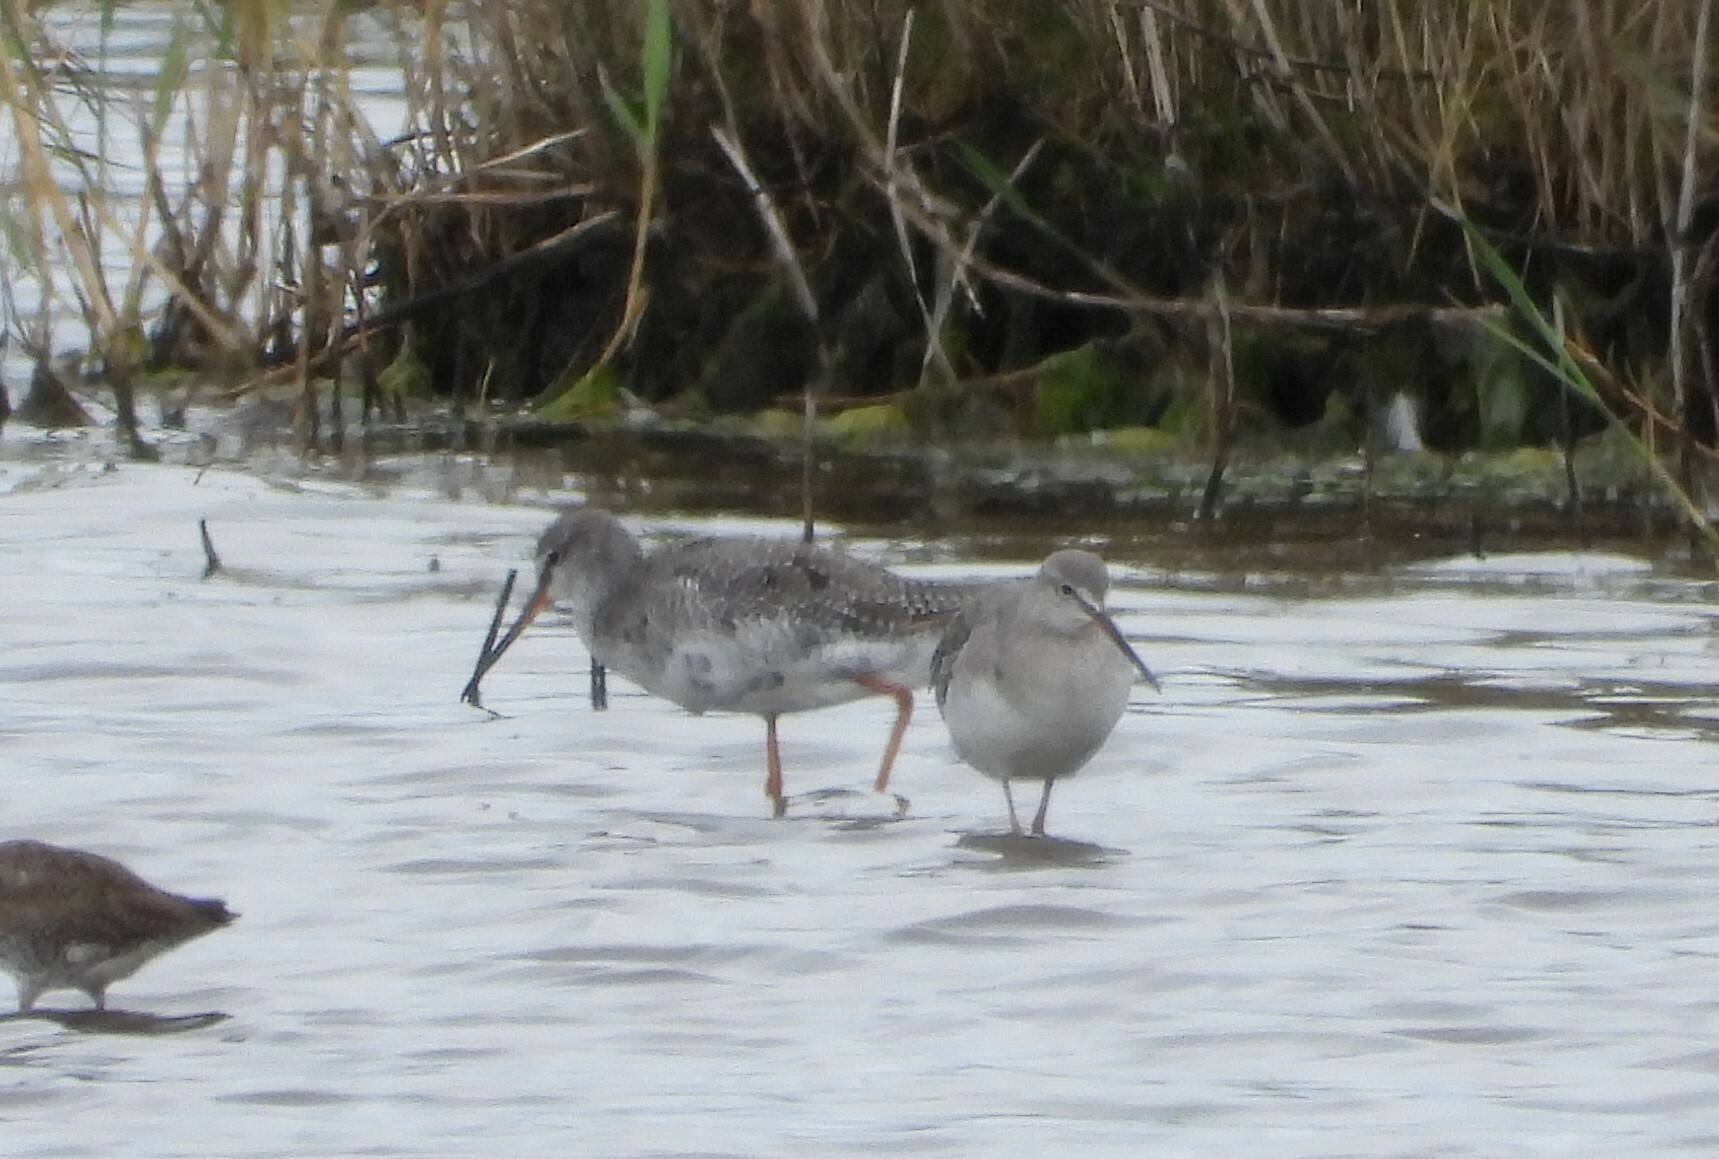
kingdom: Animalia
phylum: Chordata
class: Aves
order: Charadriiformes
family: Scolopacidae
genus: Tringa
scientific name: Tringa erythropus
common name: Spotted redshank
